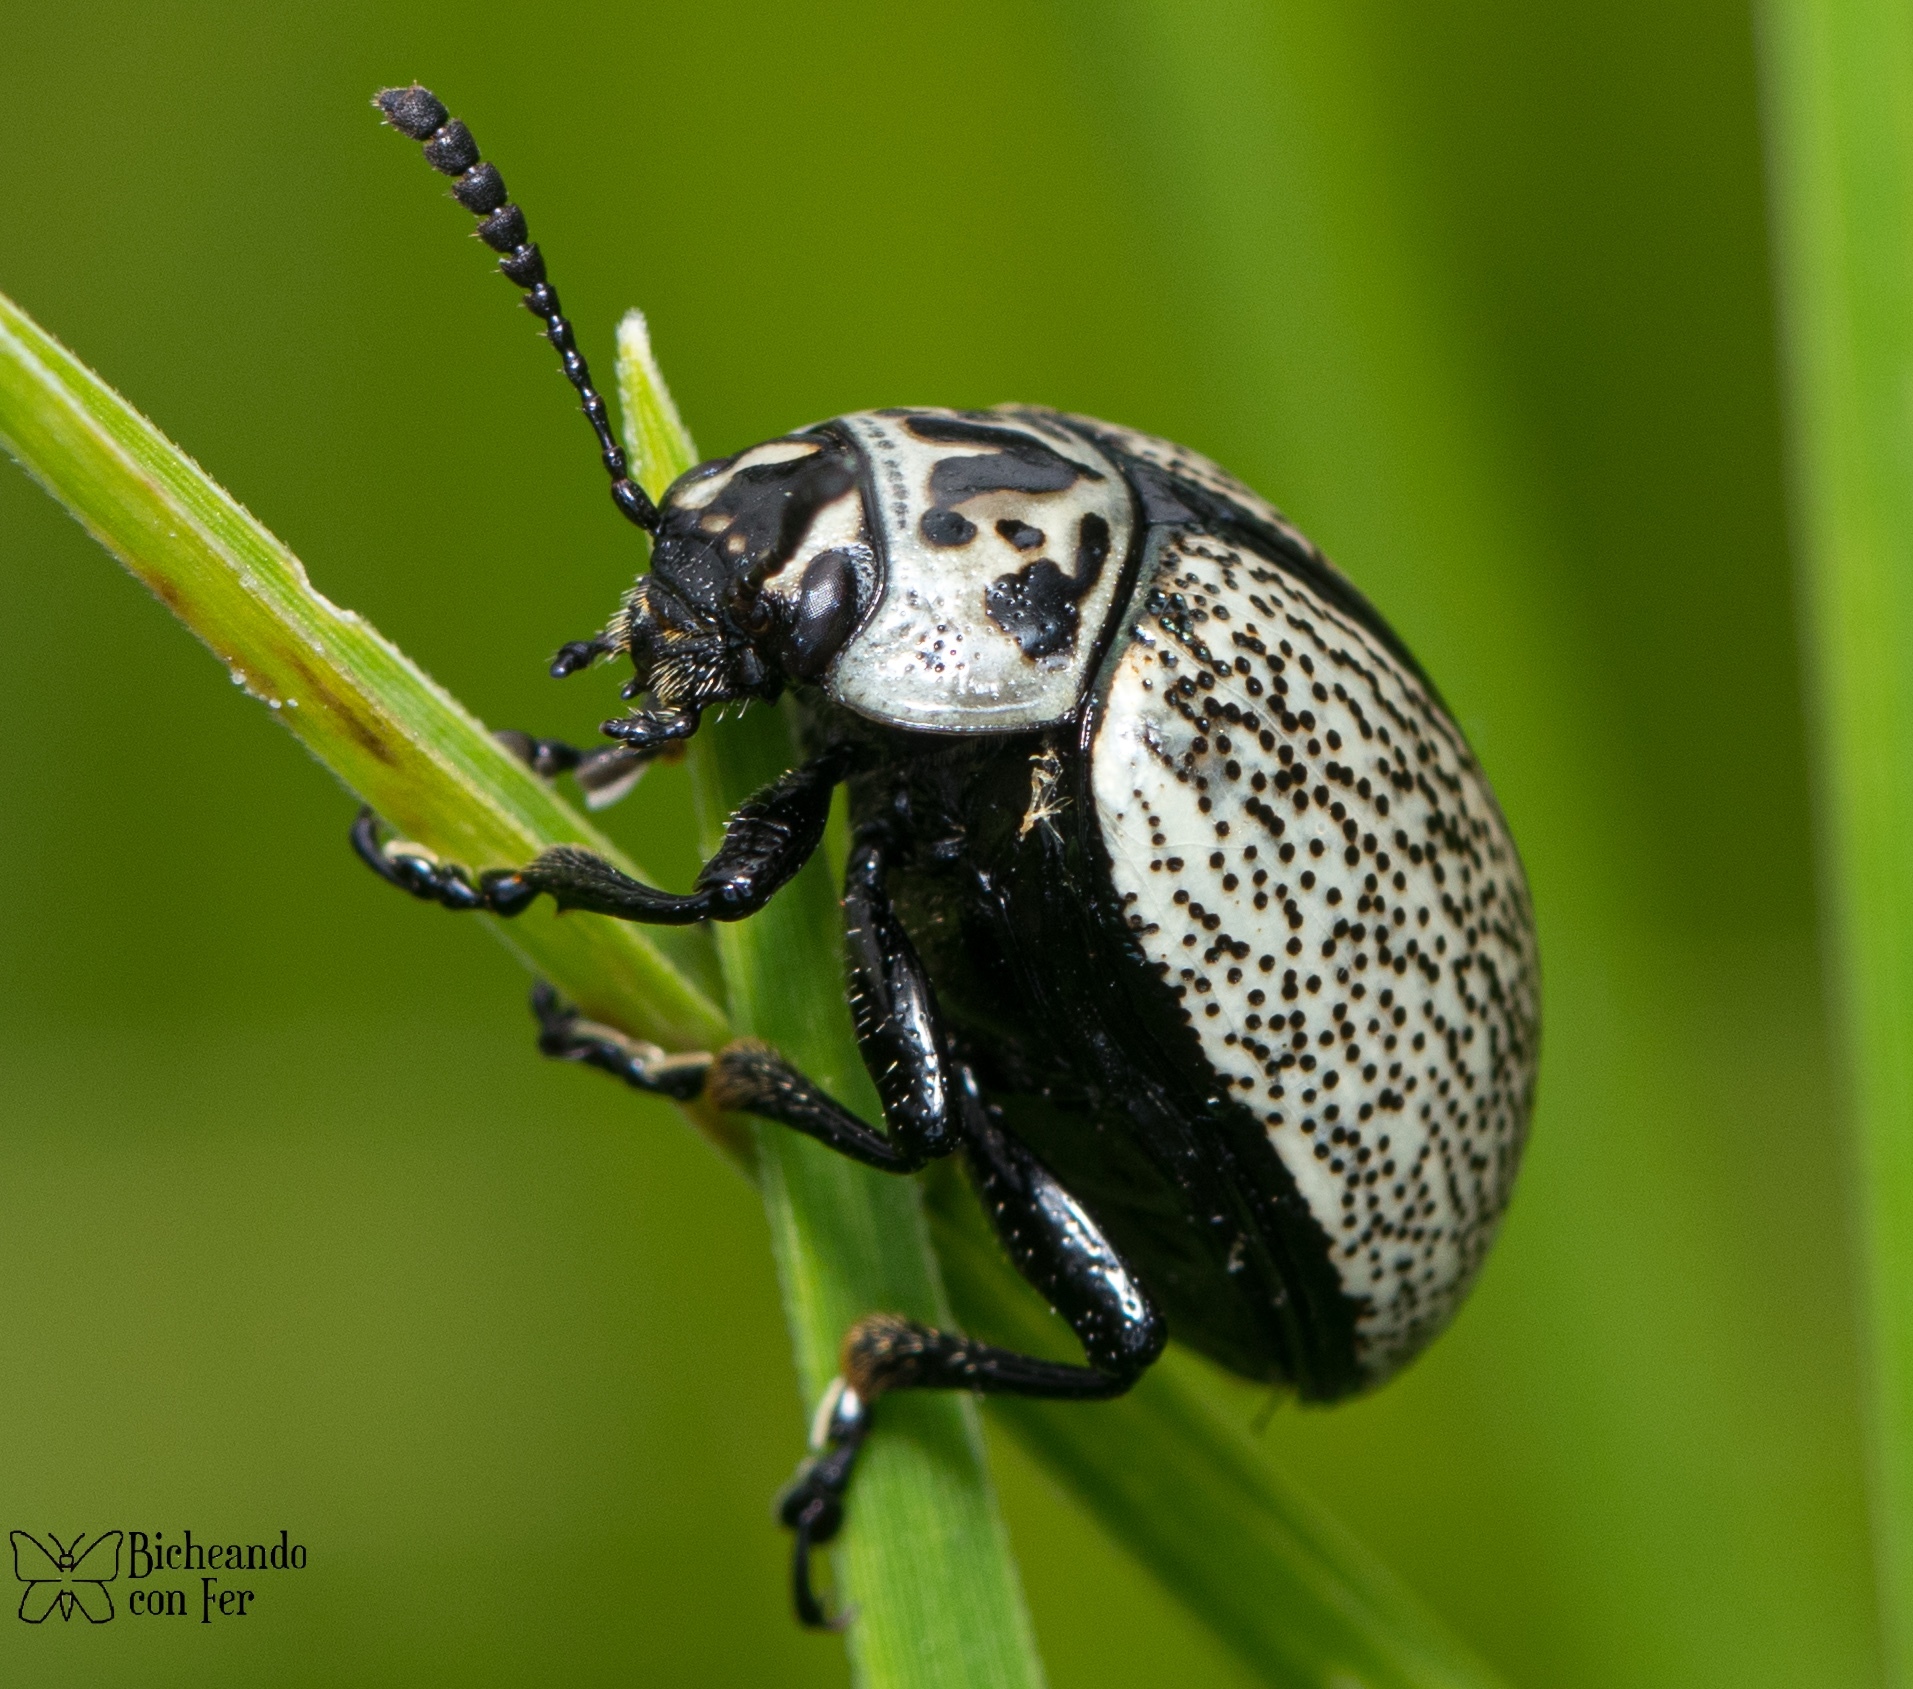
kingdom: Animalia
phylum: Arthropoda
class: Insecta
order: Coleoptera
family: Chrysomelidae
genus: Leptinotarsa
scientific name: Leptinotarsa
